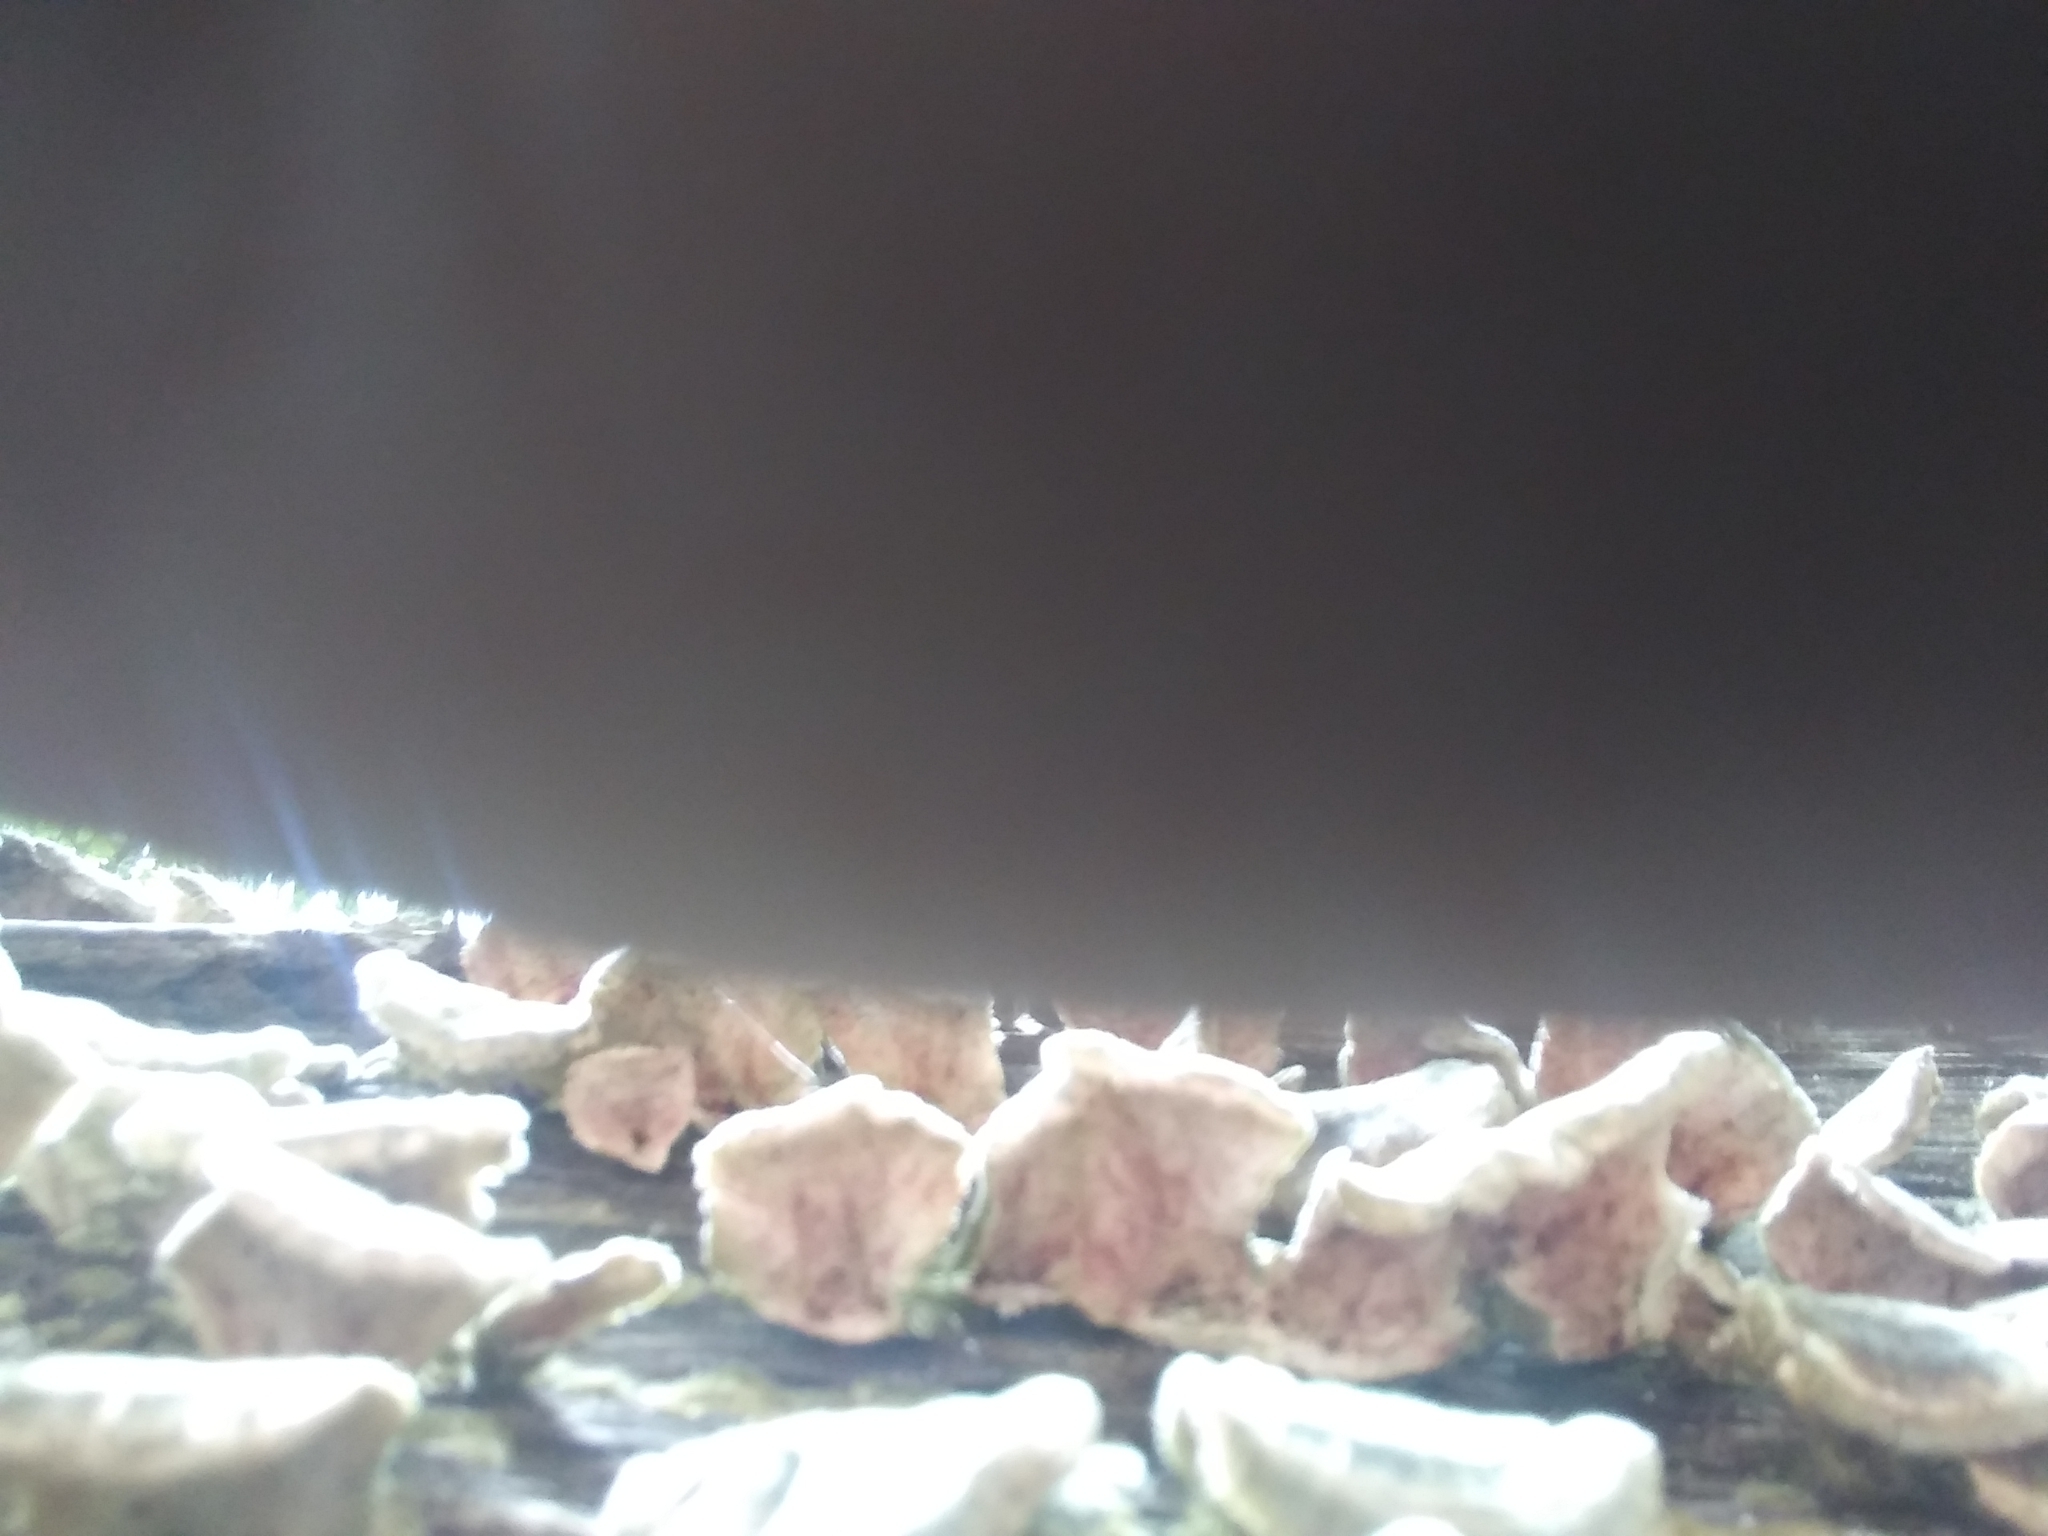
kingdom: Fungi
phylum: Basidiomycota
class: Agaricomycetes
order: Polyporales
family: Polyporaceae
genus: Trametes
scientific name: Trametes versicolor
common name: Turkeytail
